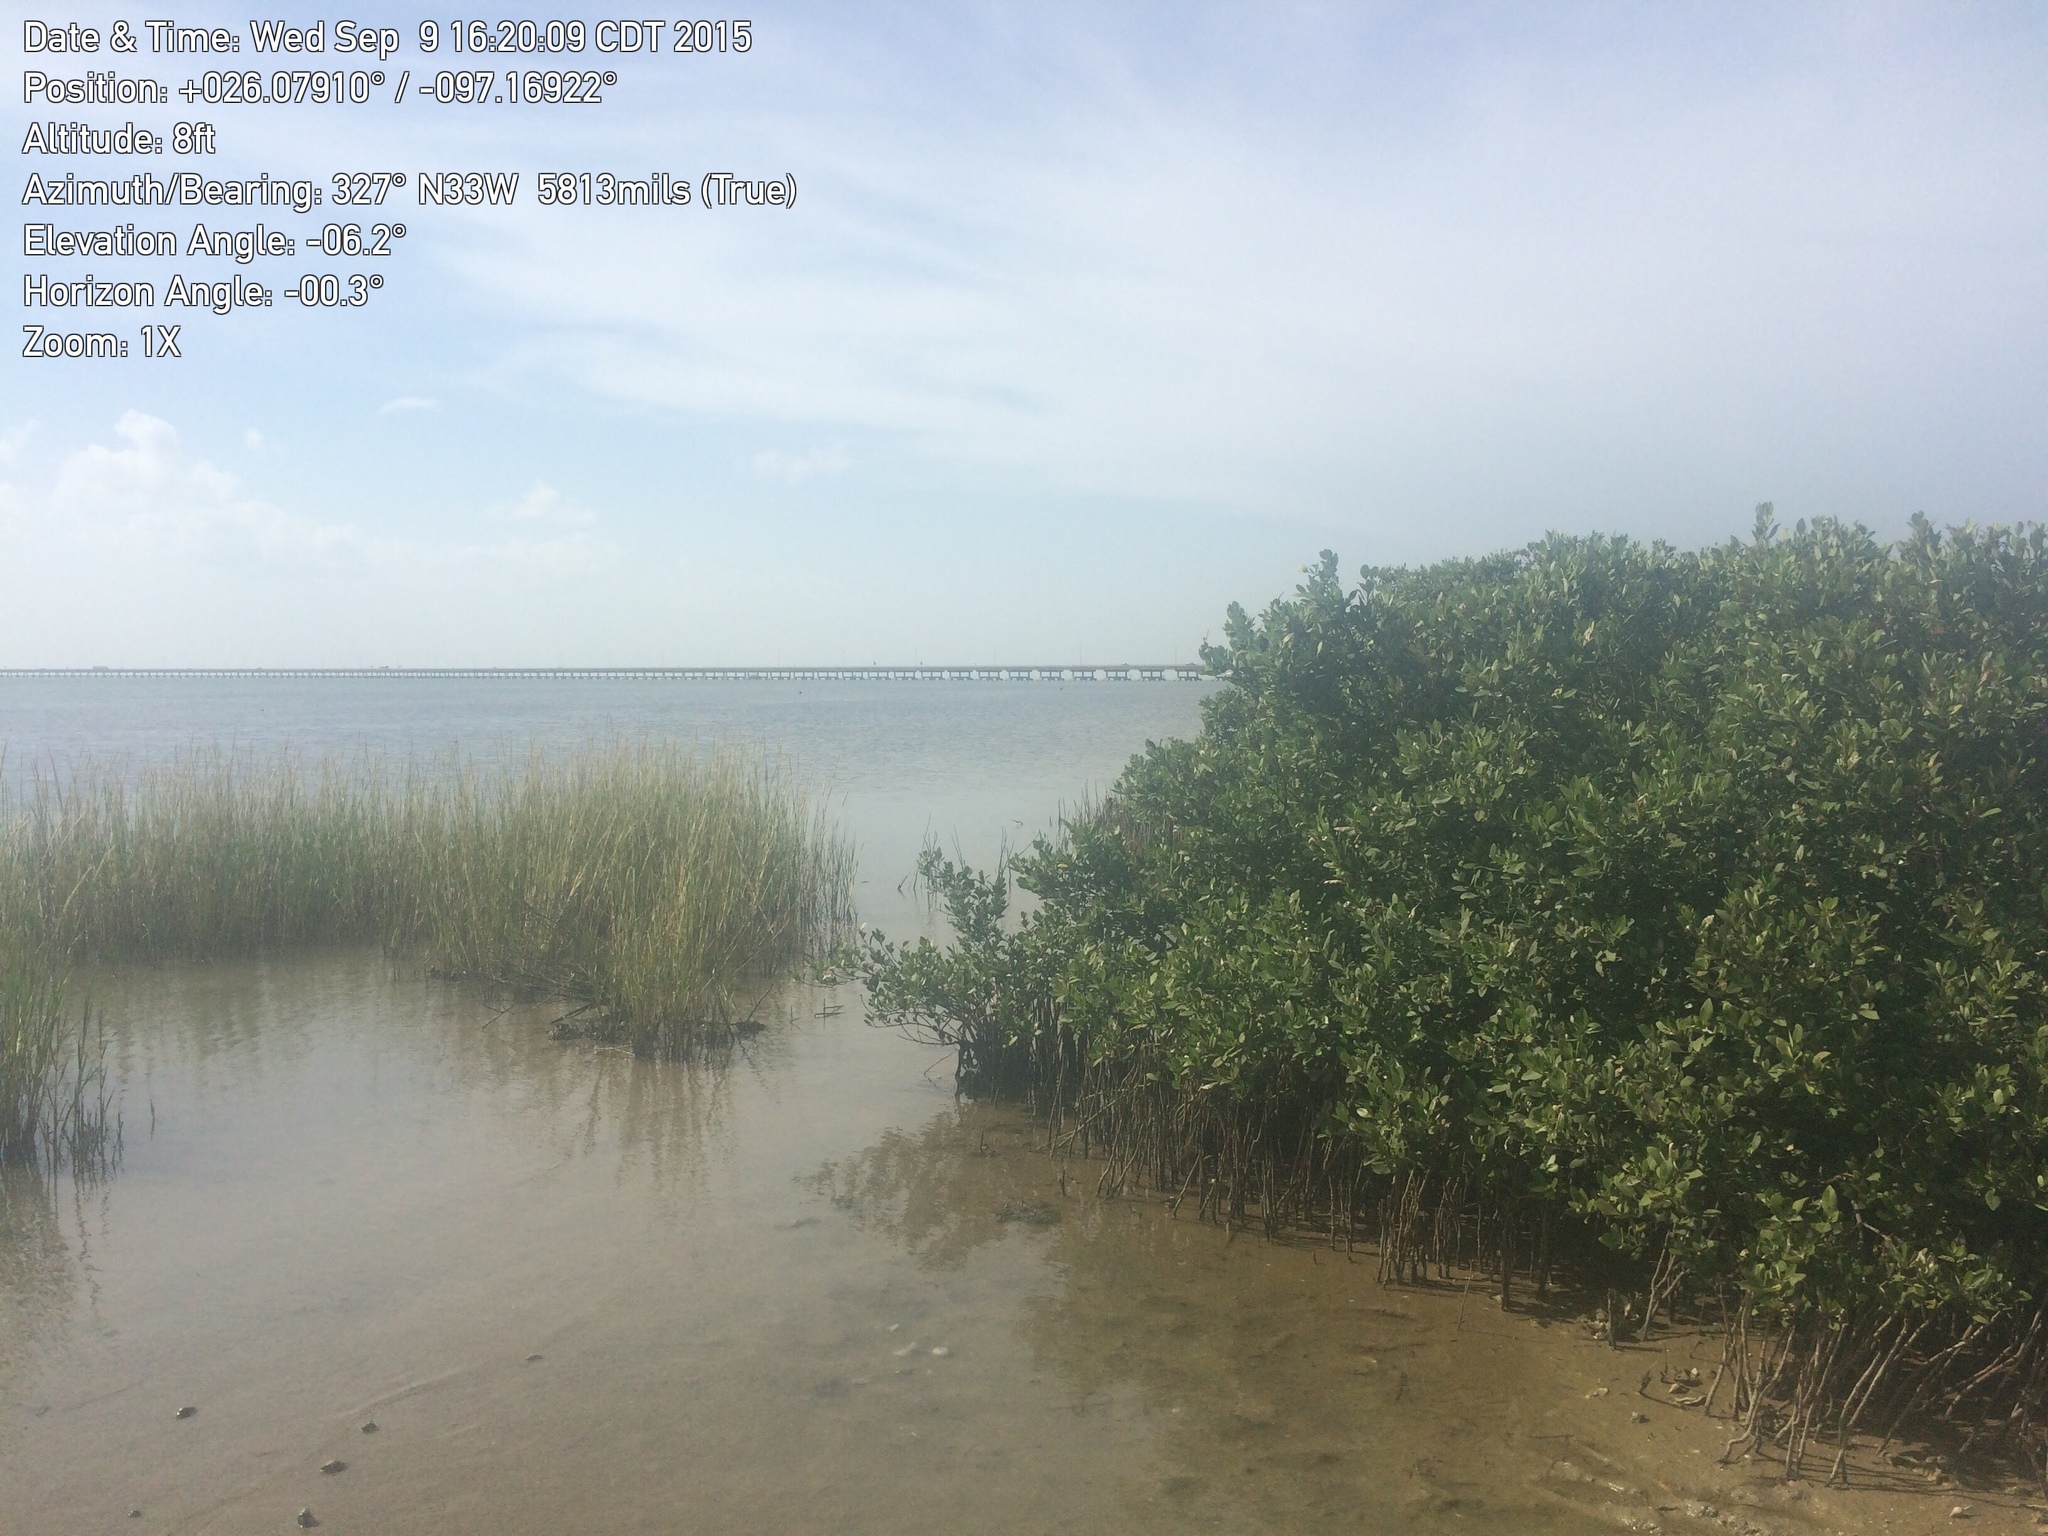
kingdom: Plantae
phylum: Tracheophyta
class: Magnoliopsida
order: Lamiales
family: Acanthaceae
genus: Avicennia
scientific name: Avicennia germinans
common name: Black mangrove
